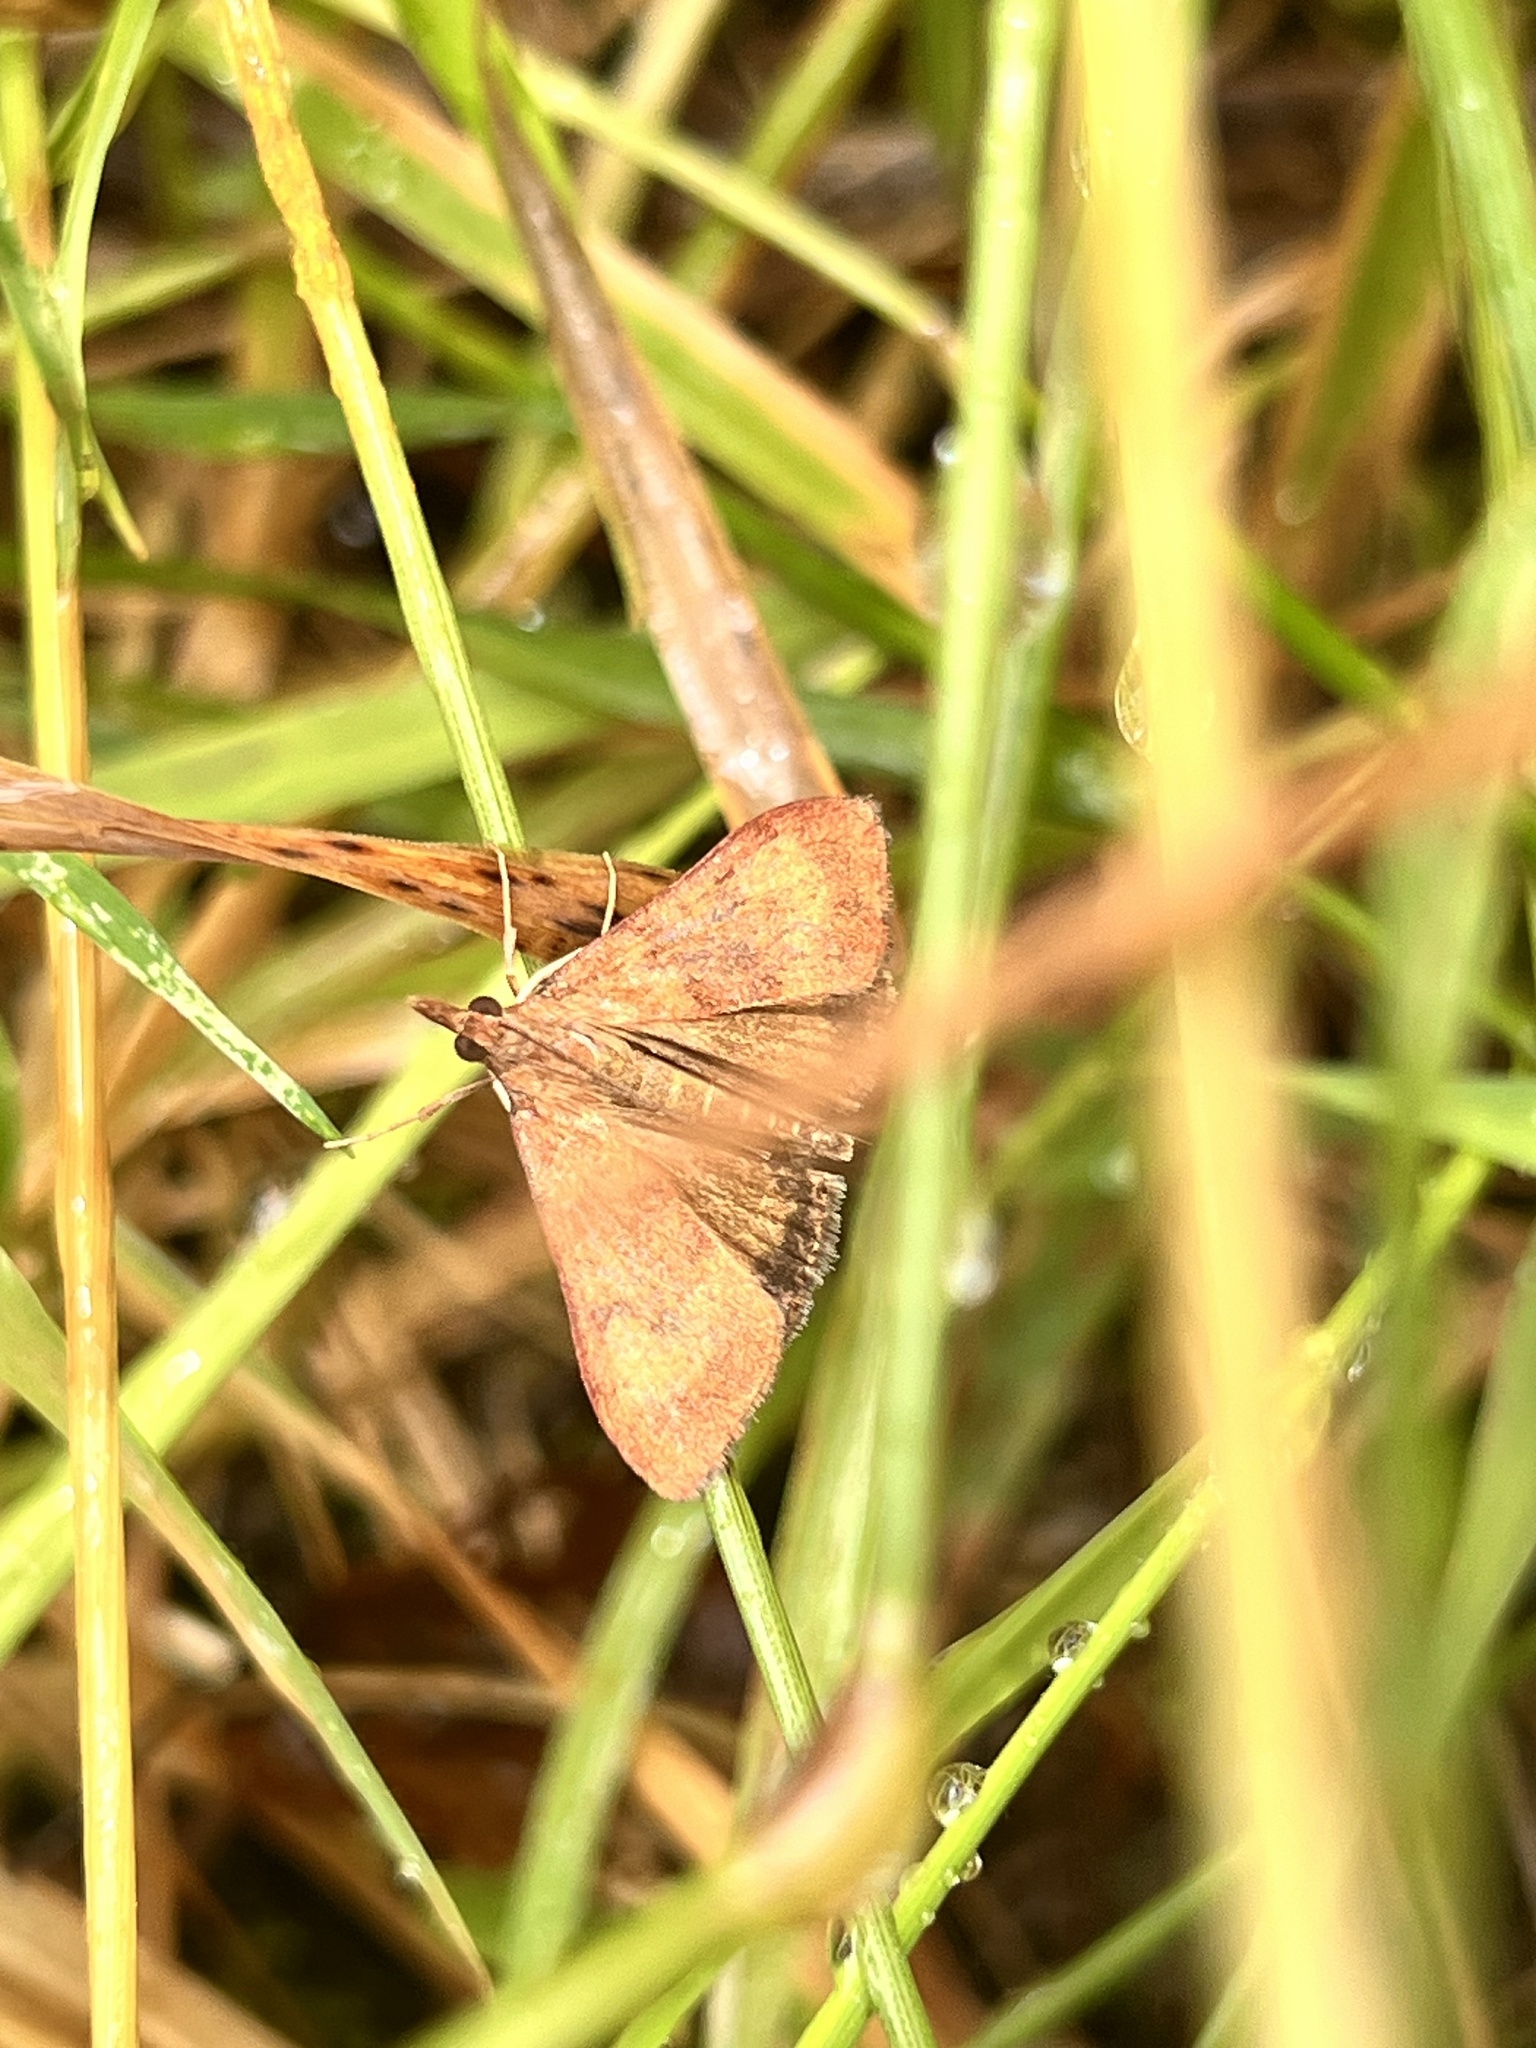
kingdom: Animalia
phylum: Arthropoda
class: Insecta
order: Lepidoptera
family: Crambidae
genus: Uresiphita
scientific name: Uresiphita
